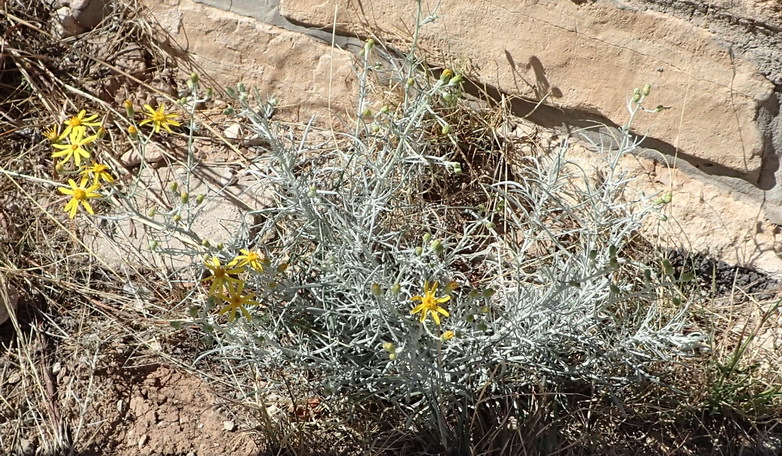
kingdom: Plantae
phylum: Tracheophyta
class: Magnoliopsida
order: Asterales
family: Asteraceae
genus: Senecio
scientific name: Senecio flaccidus
